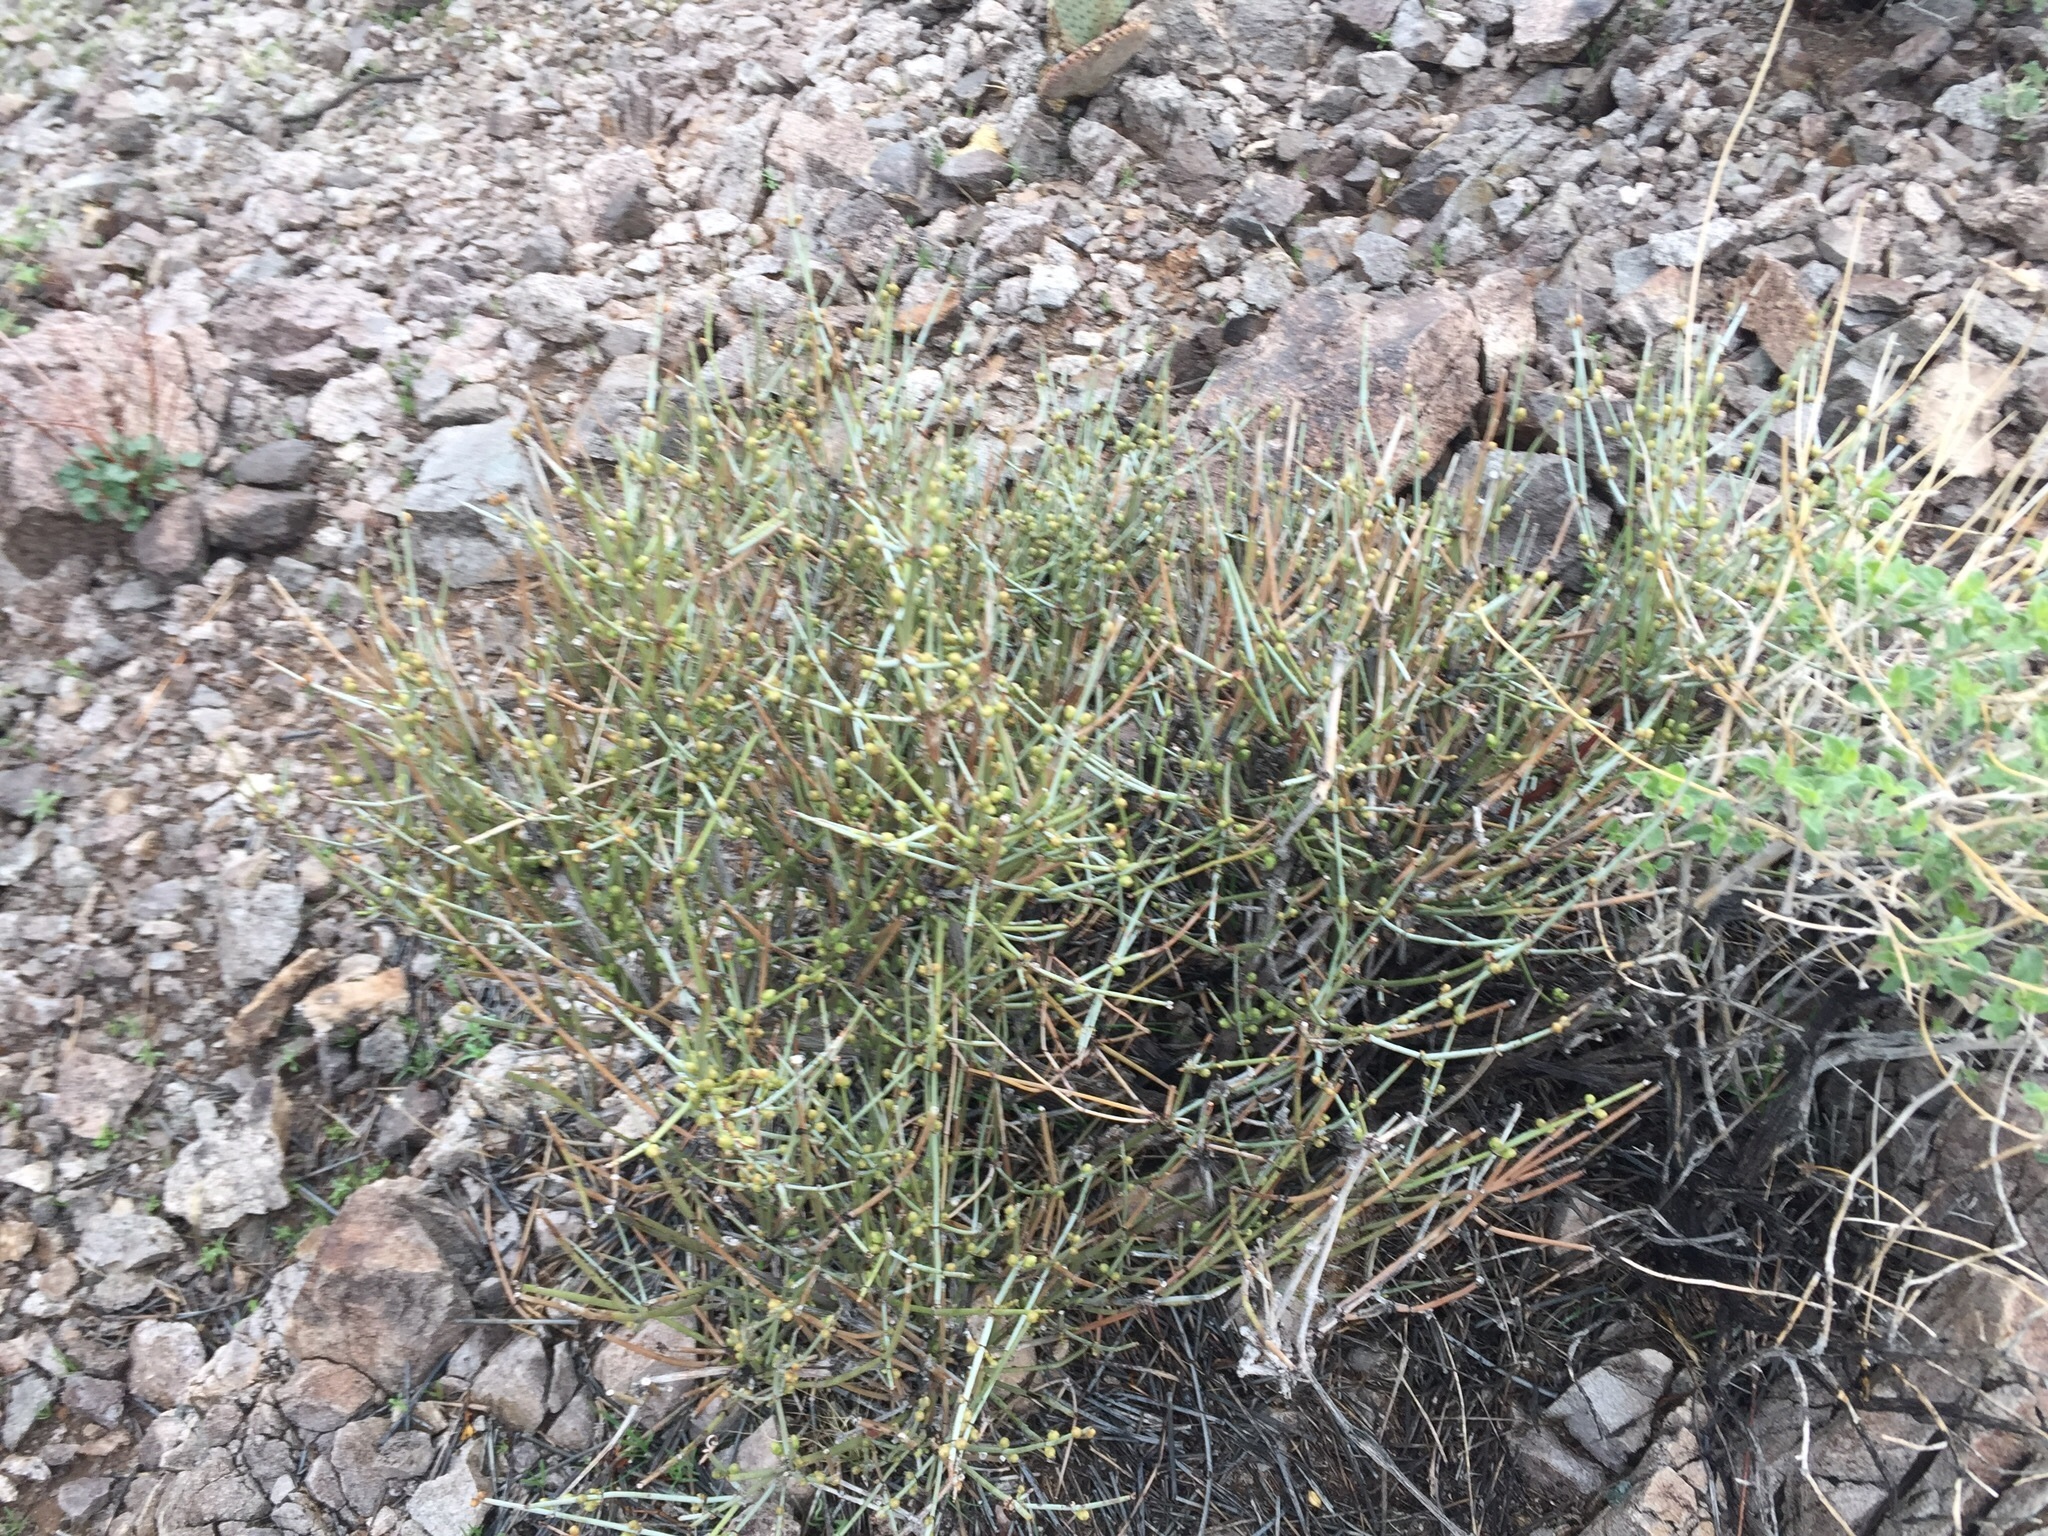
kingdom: Plantae
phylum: Tracheophyta
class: Gnetopsida
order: Ephedrales
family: Ephedraceae
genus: Ephedra
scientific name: Ephedra nevadensis
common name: Gray ephedra
